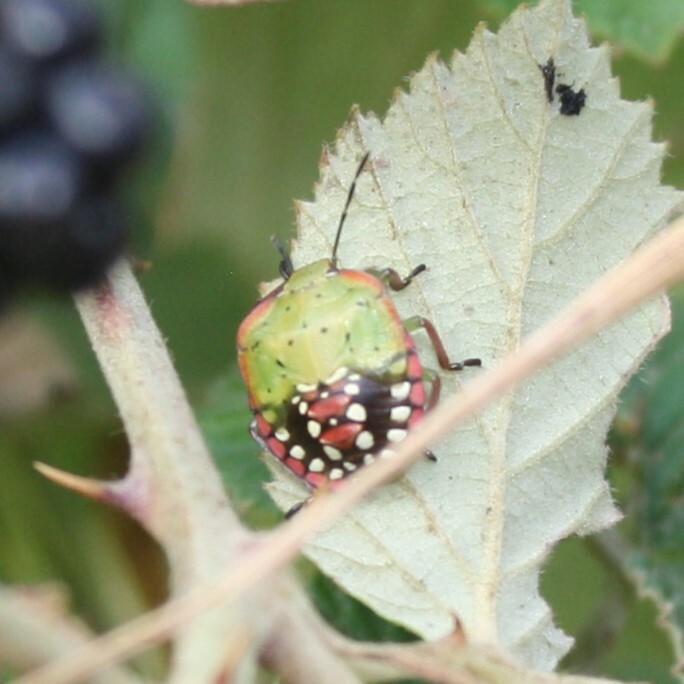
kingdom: Animalia
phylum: Arthropoda
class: Insecta
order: Hemiptera
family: Pentatomidae
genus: Nezara
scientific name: Nezara viridula
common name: Southern green stink bug
